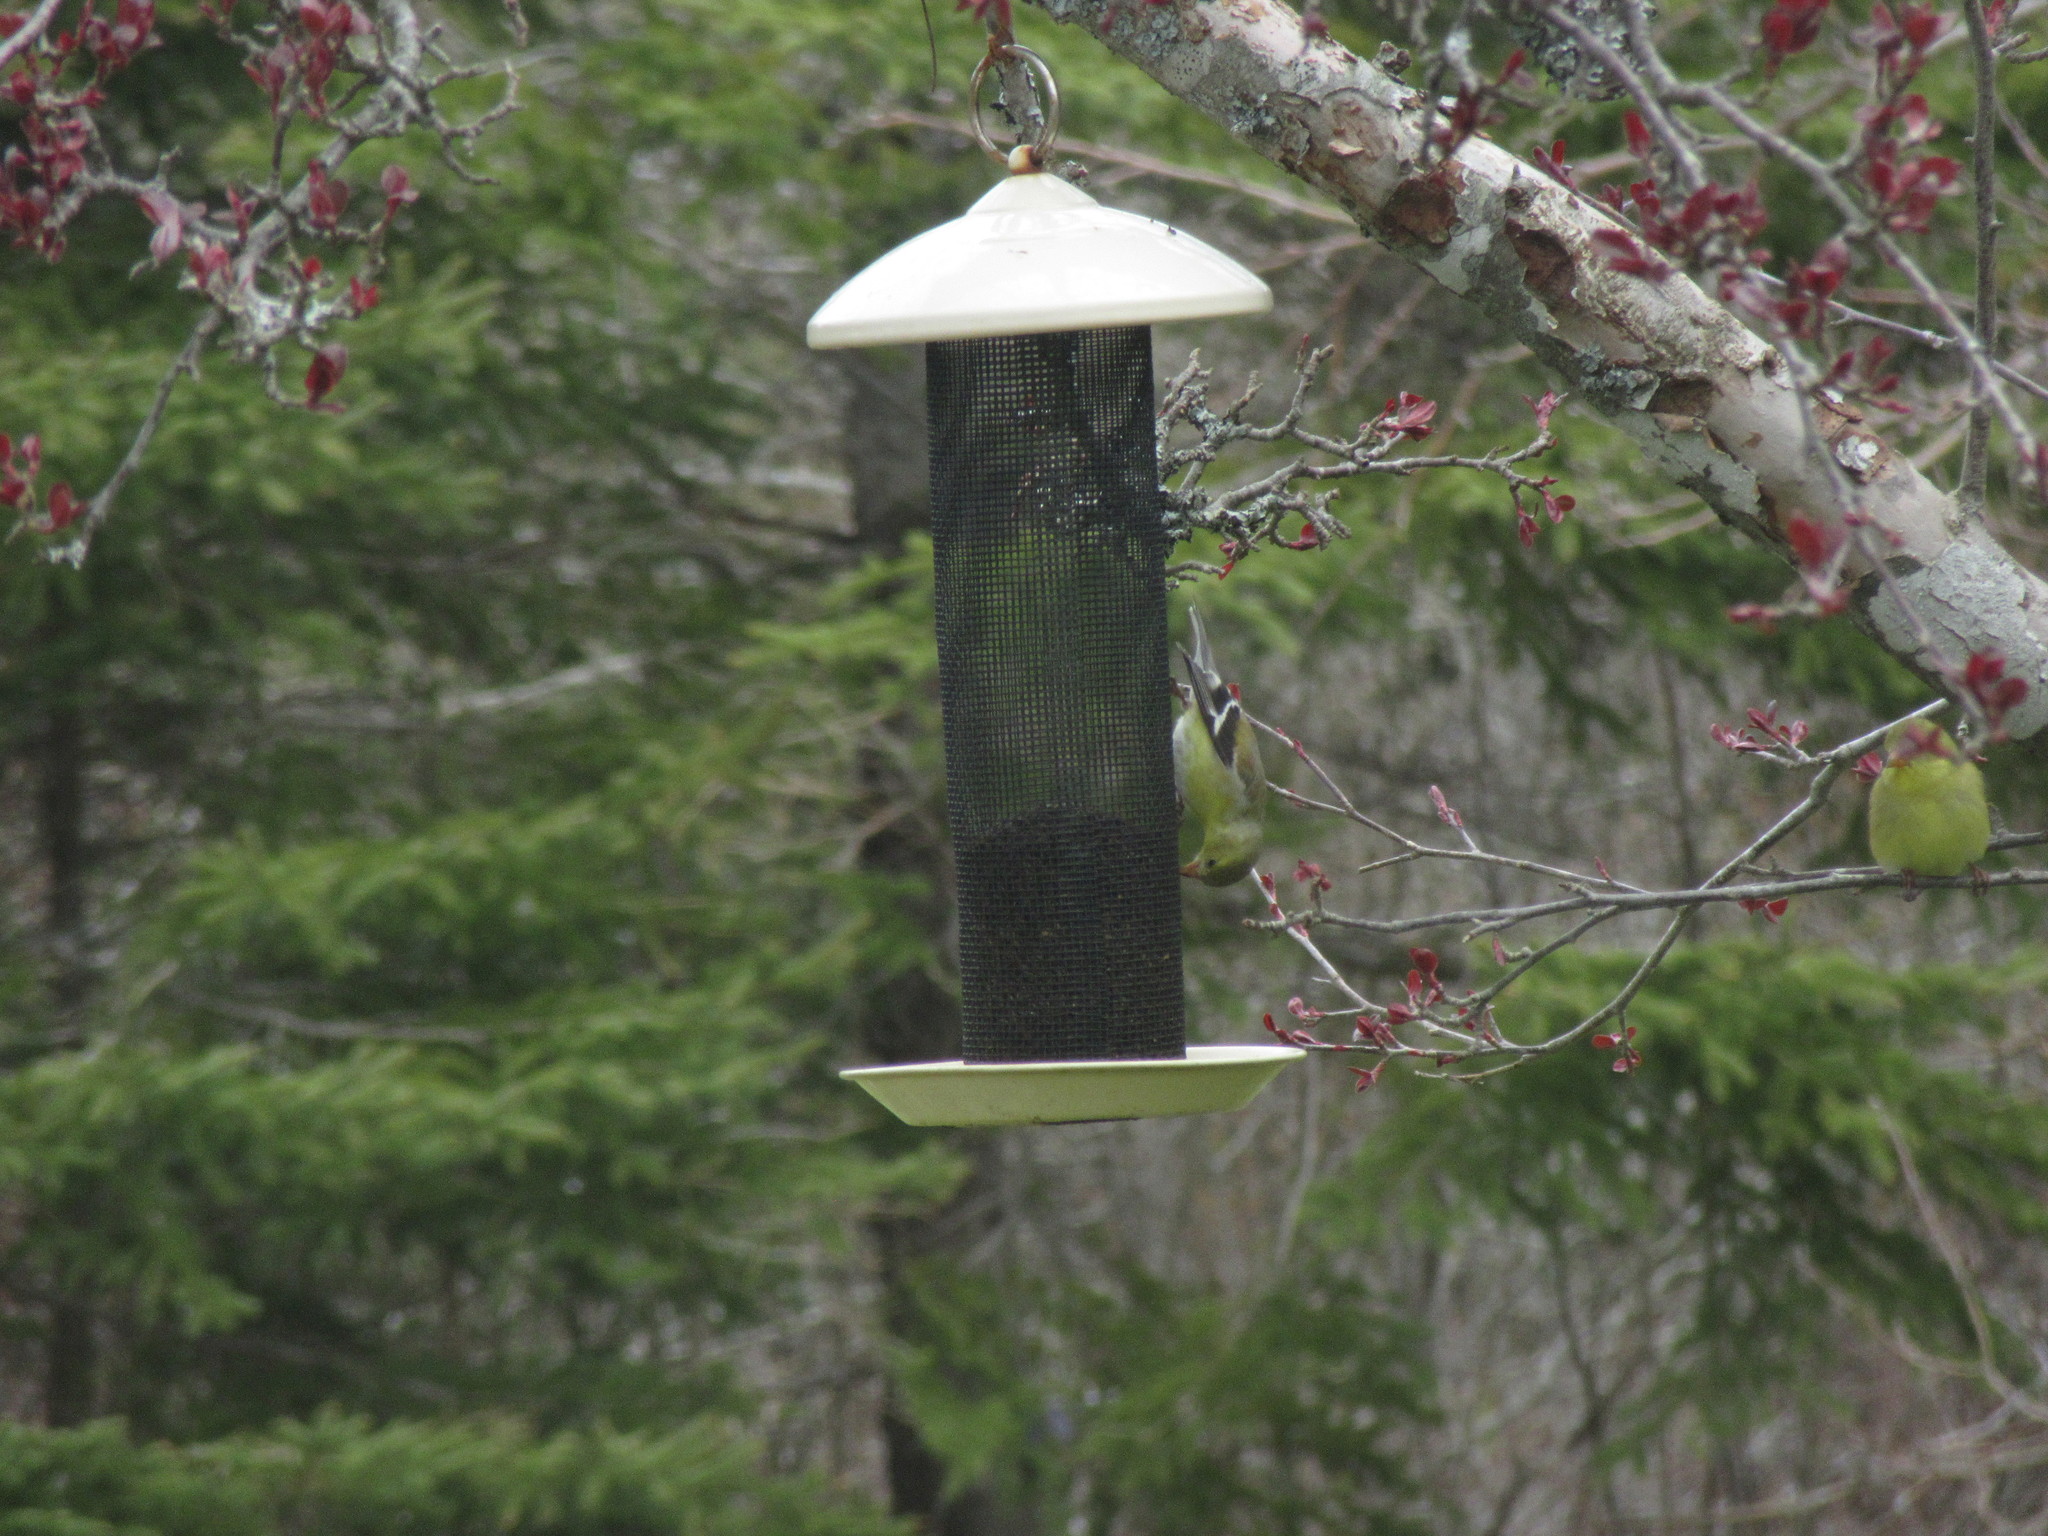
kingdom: Animalia
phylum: Chordata
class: Aves
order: Passeriformes
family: Fringillidae
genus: Spinus
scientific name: Spinus tristis
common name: American goldfinch
